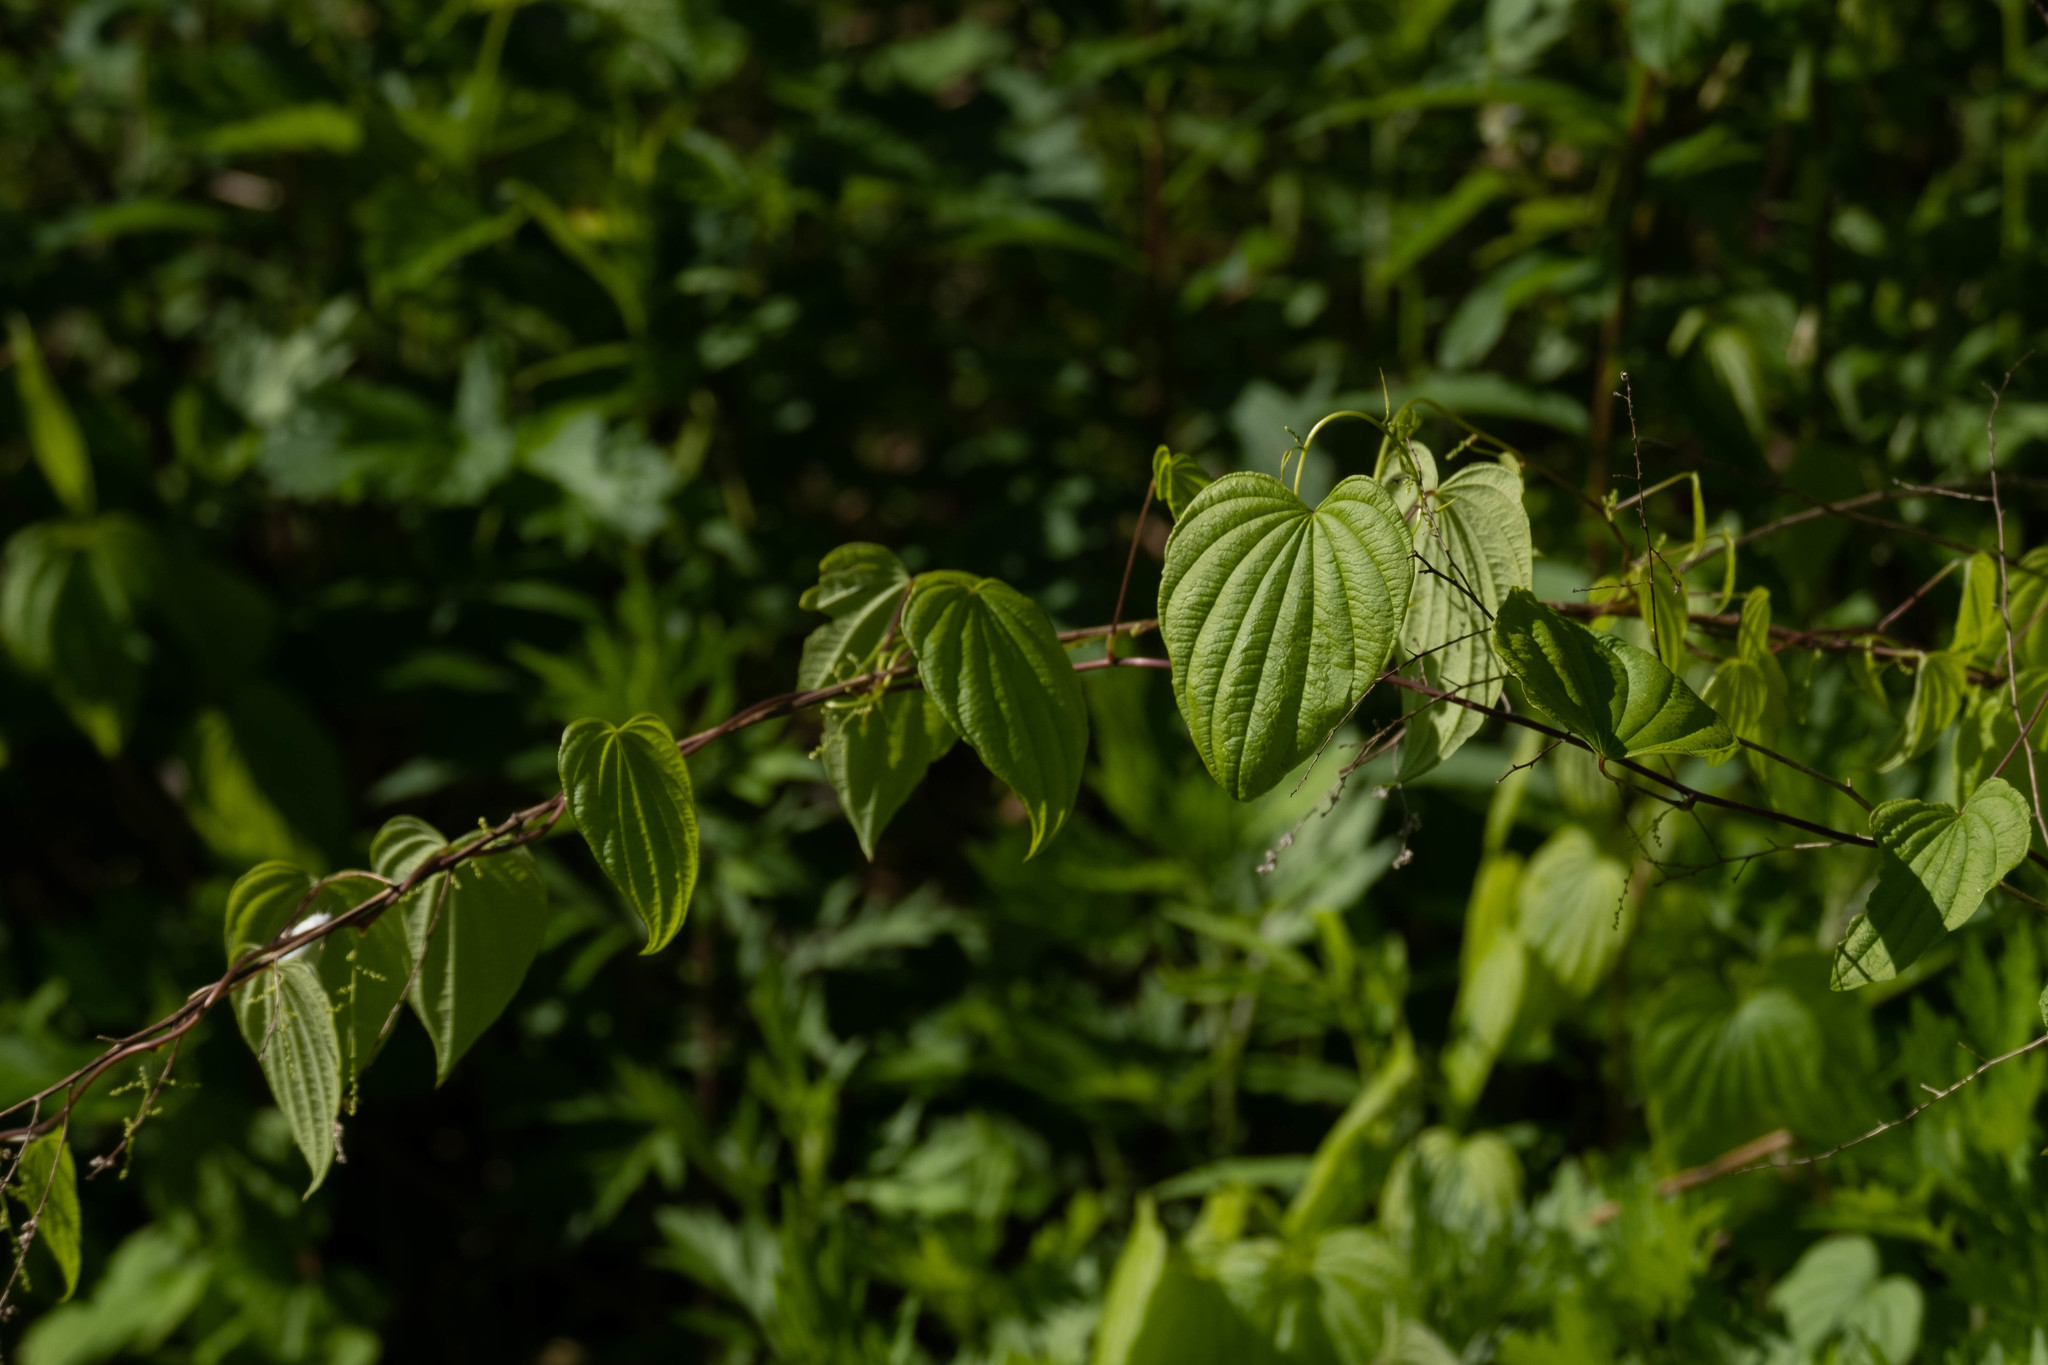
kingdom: Plantae
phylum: Tracheophyta
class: Liliopsida
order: Dioscoreales
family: Dioscoreaceae
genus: Dioscorea
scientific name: Dioscorea villosa
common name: Wild yam
